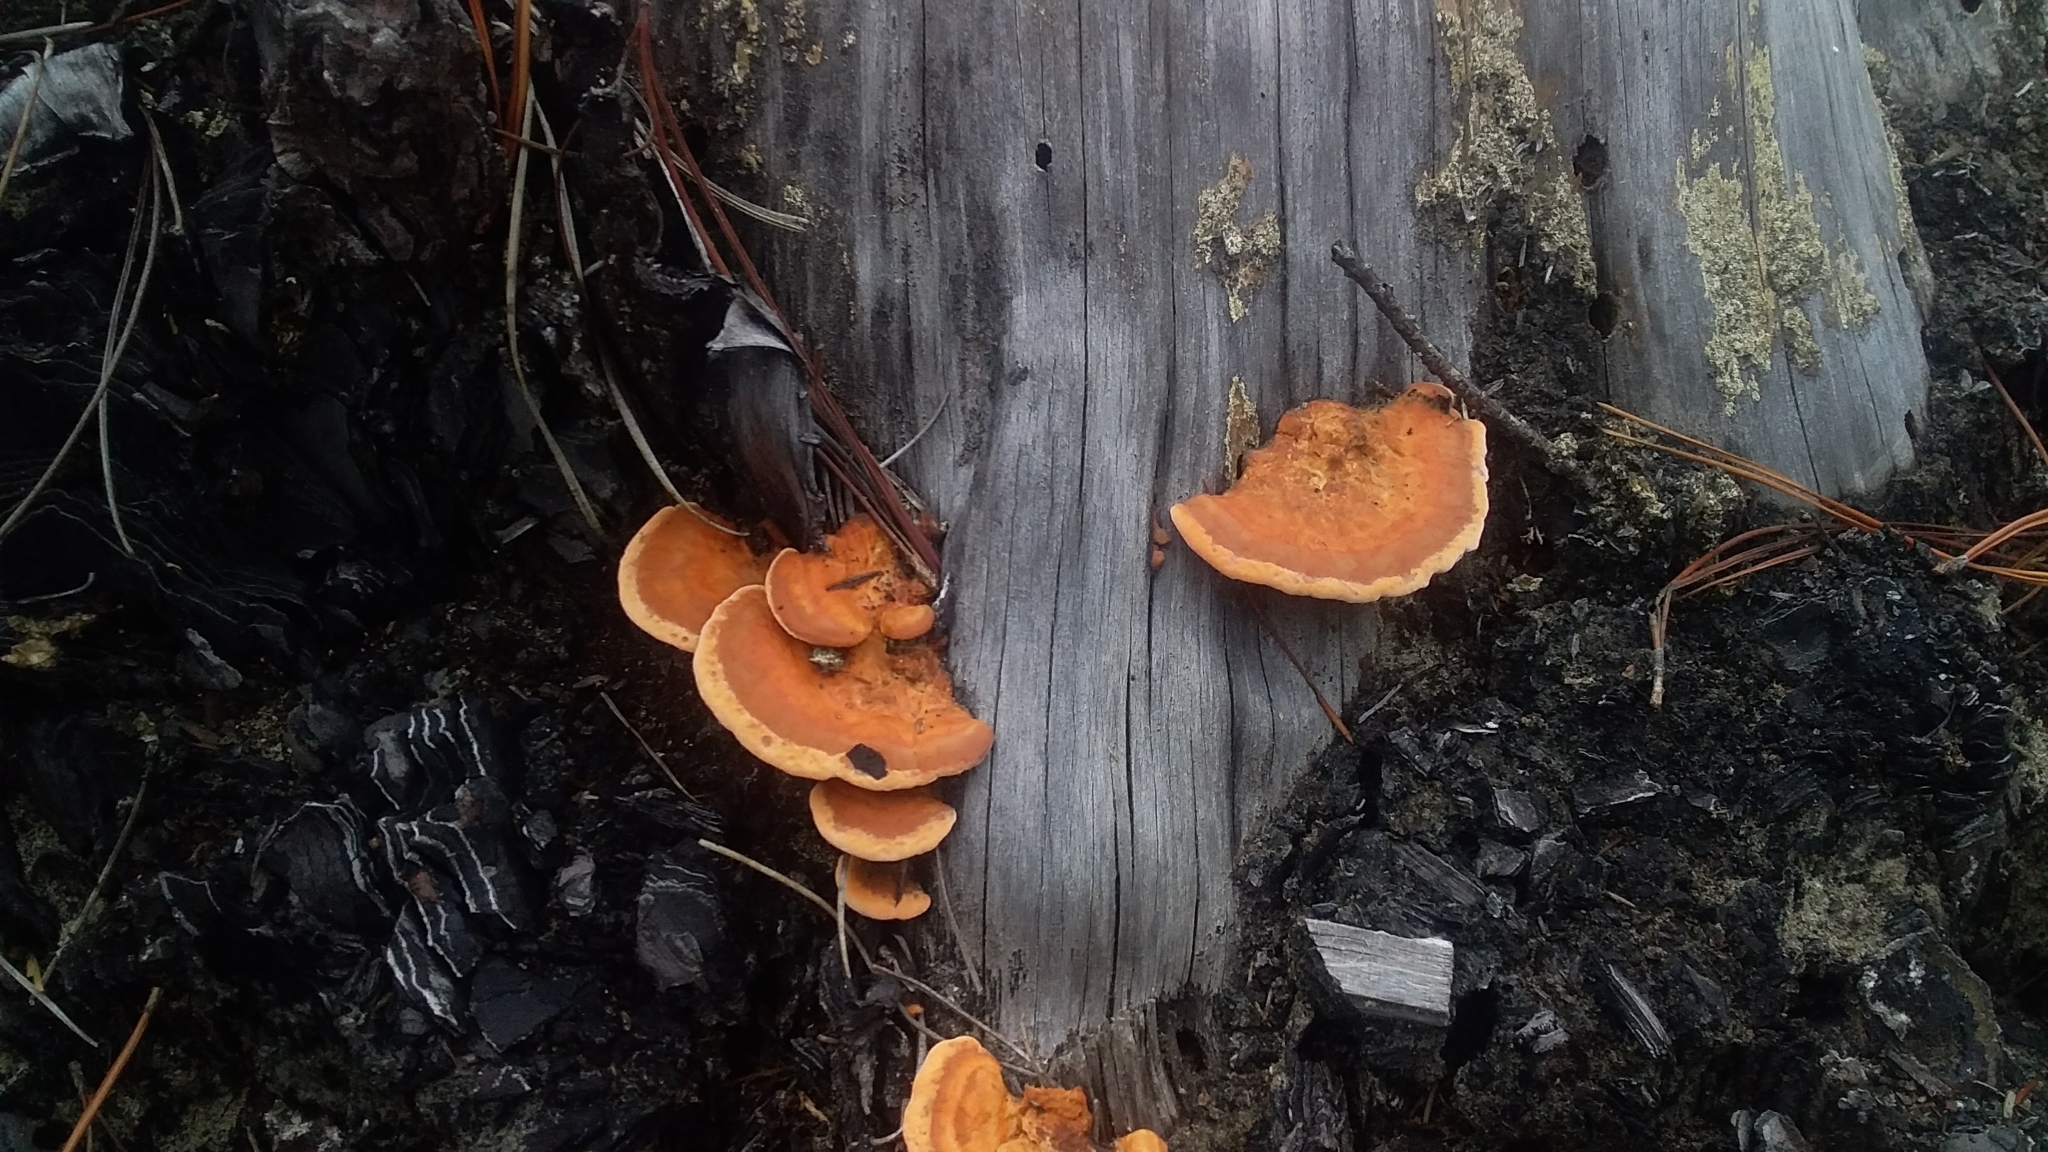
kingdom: Fungi
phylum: Basidiomycota
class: Agaricomycetes
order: Polyporales
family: Polyporaceae
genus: Trametes
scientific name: Trametes coccinea
